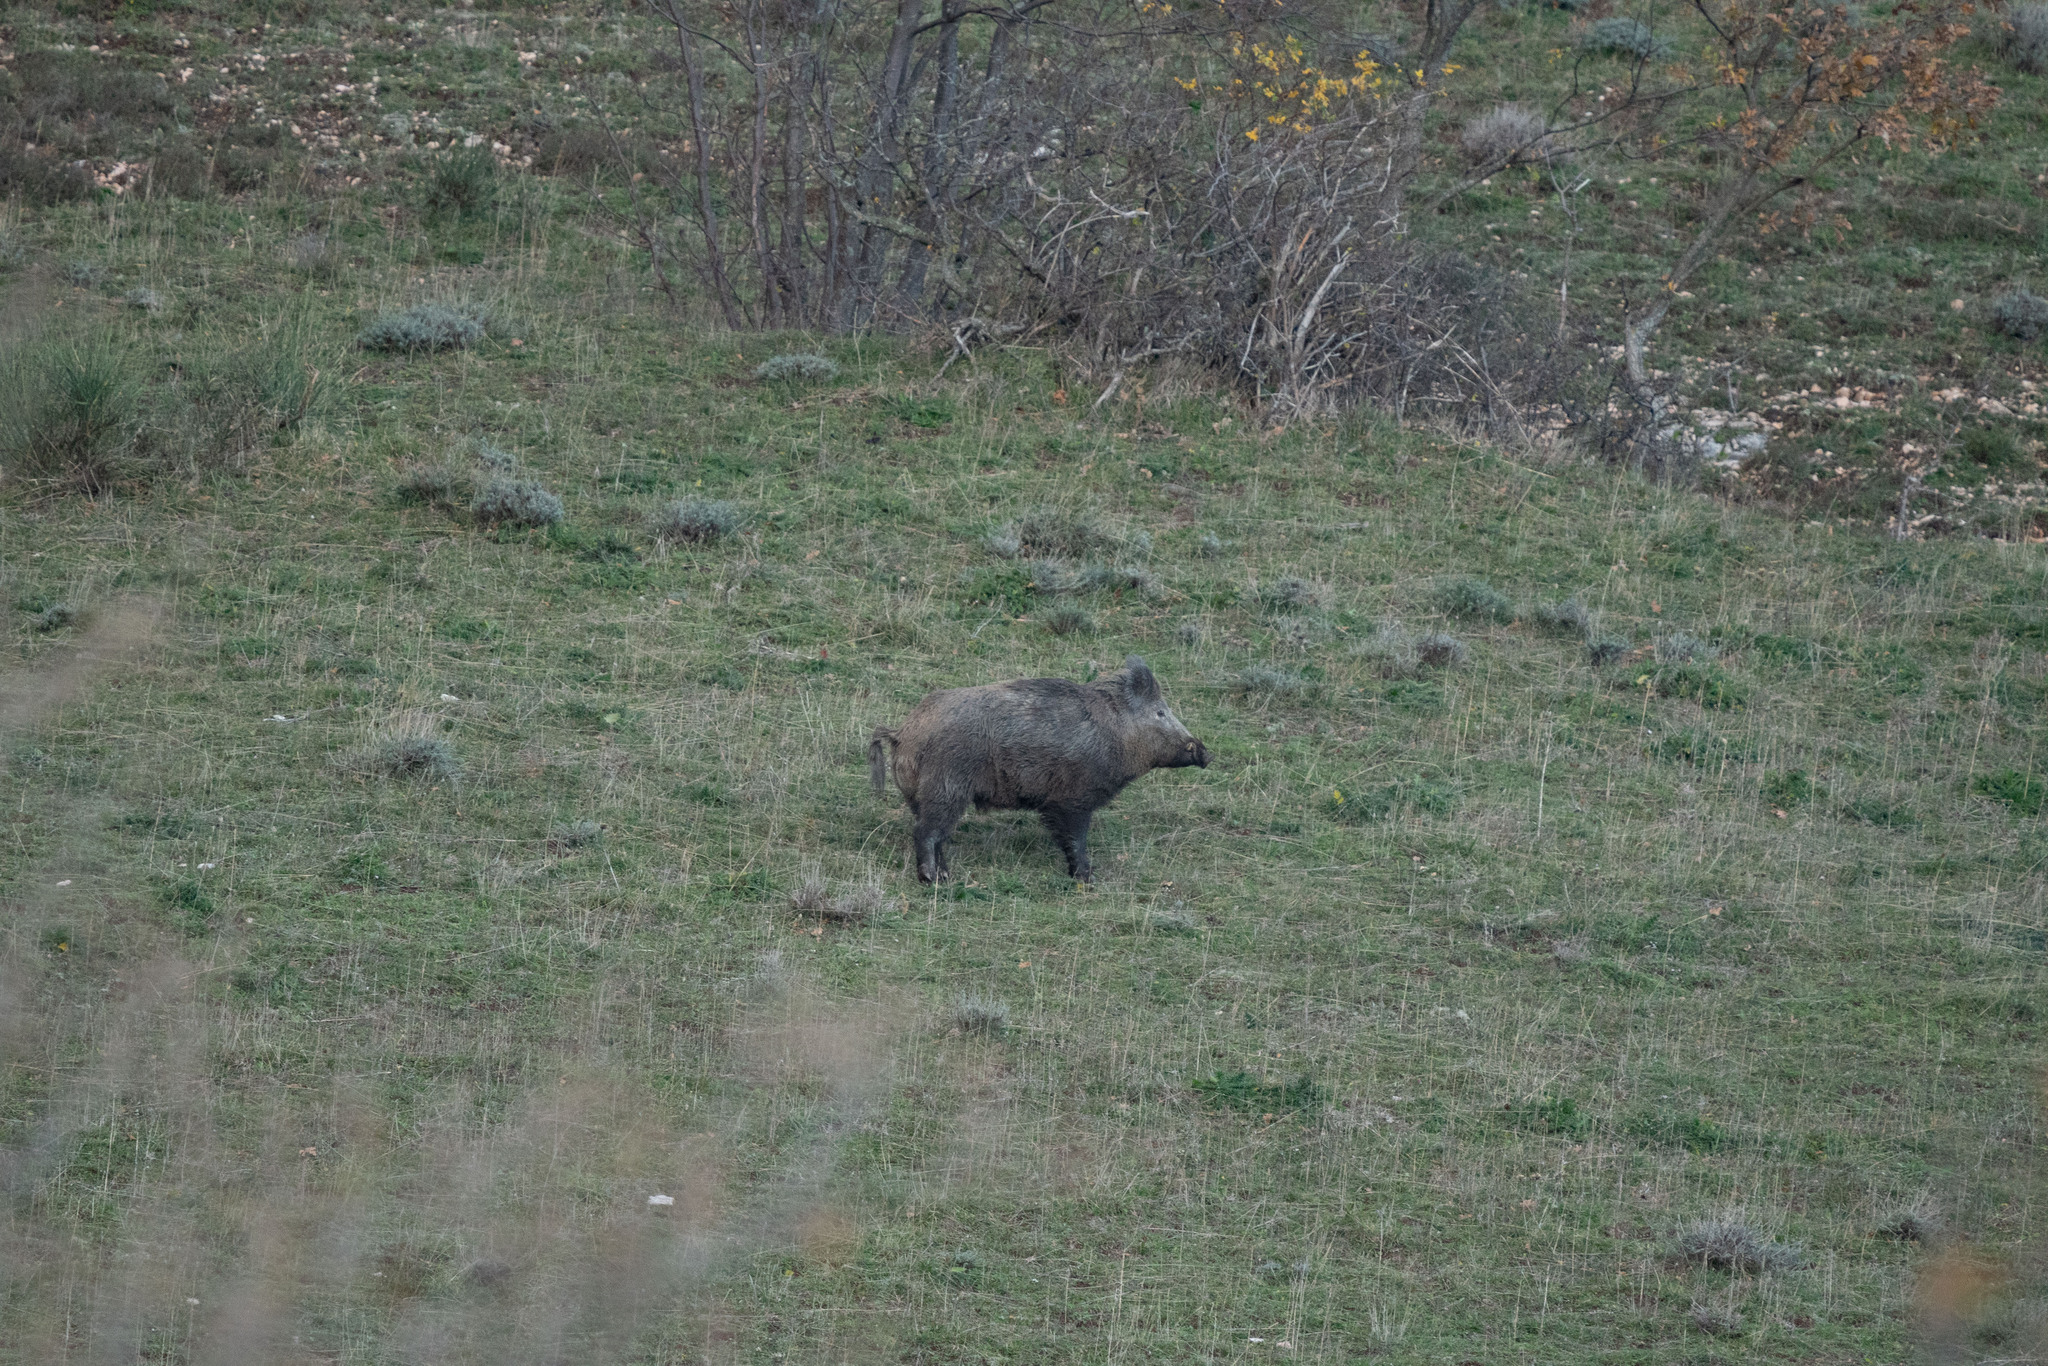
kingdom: Animalia
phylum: Chordata
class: Mammalia
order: Artiodactyla
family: Suidae
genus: Sus
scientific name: Sus scrofa
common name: Wild boar
